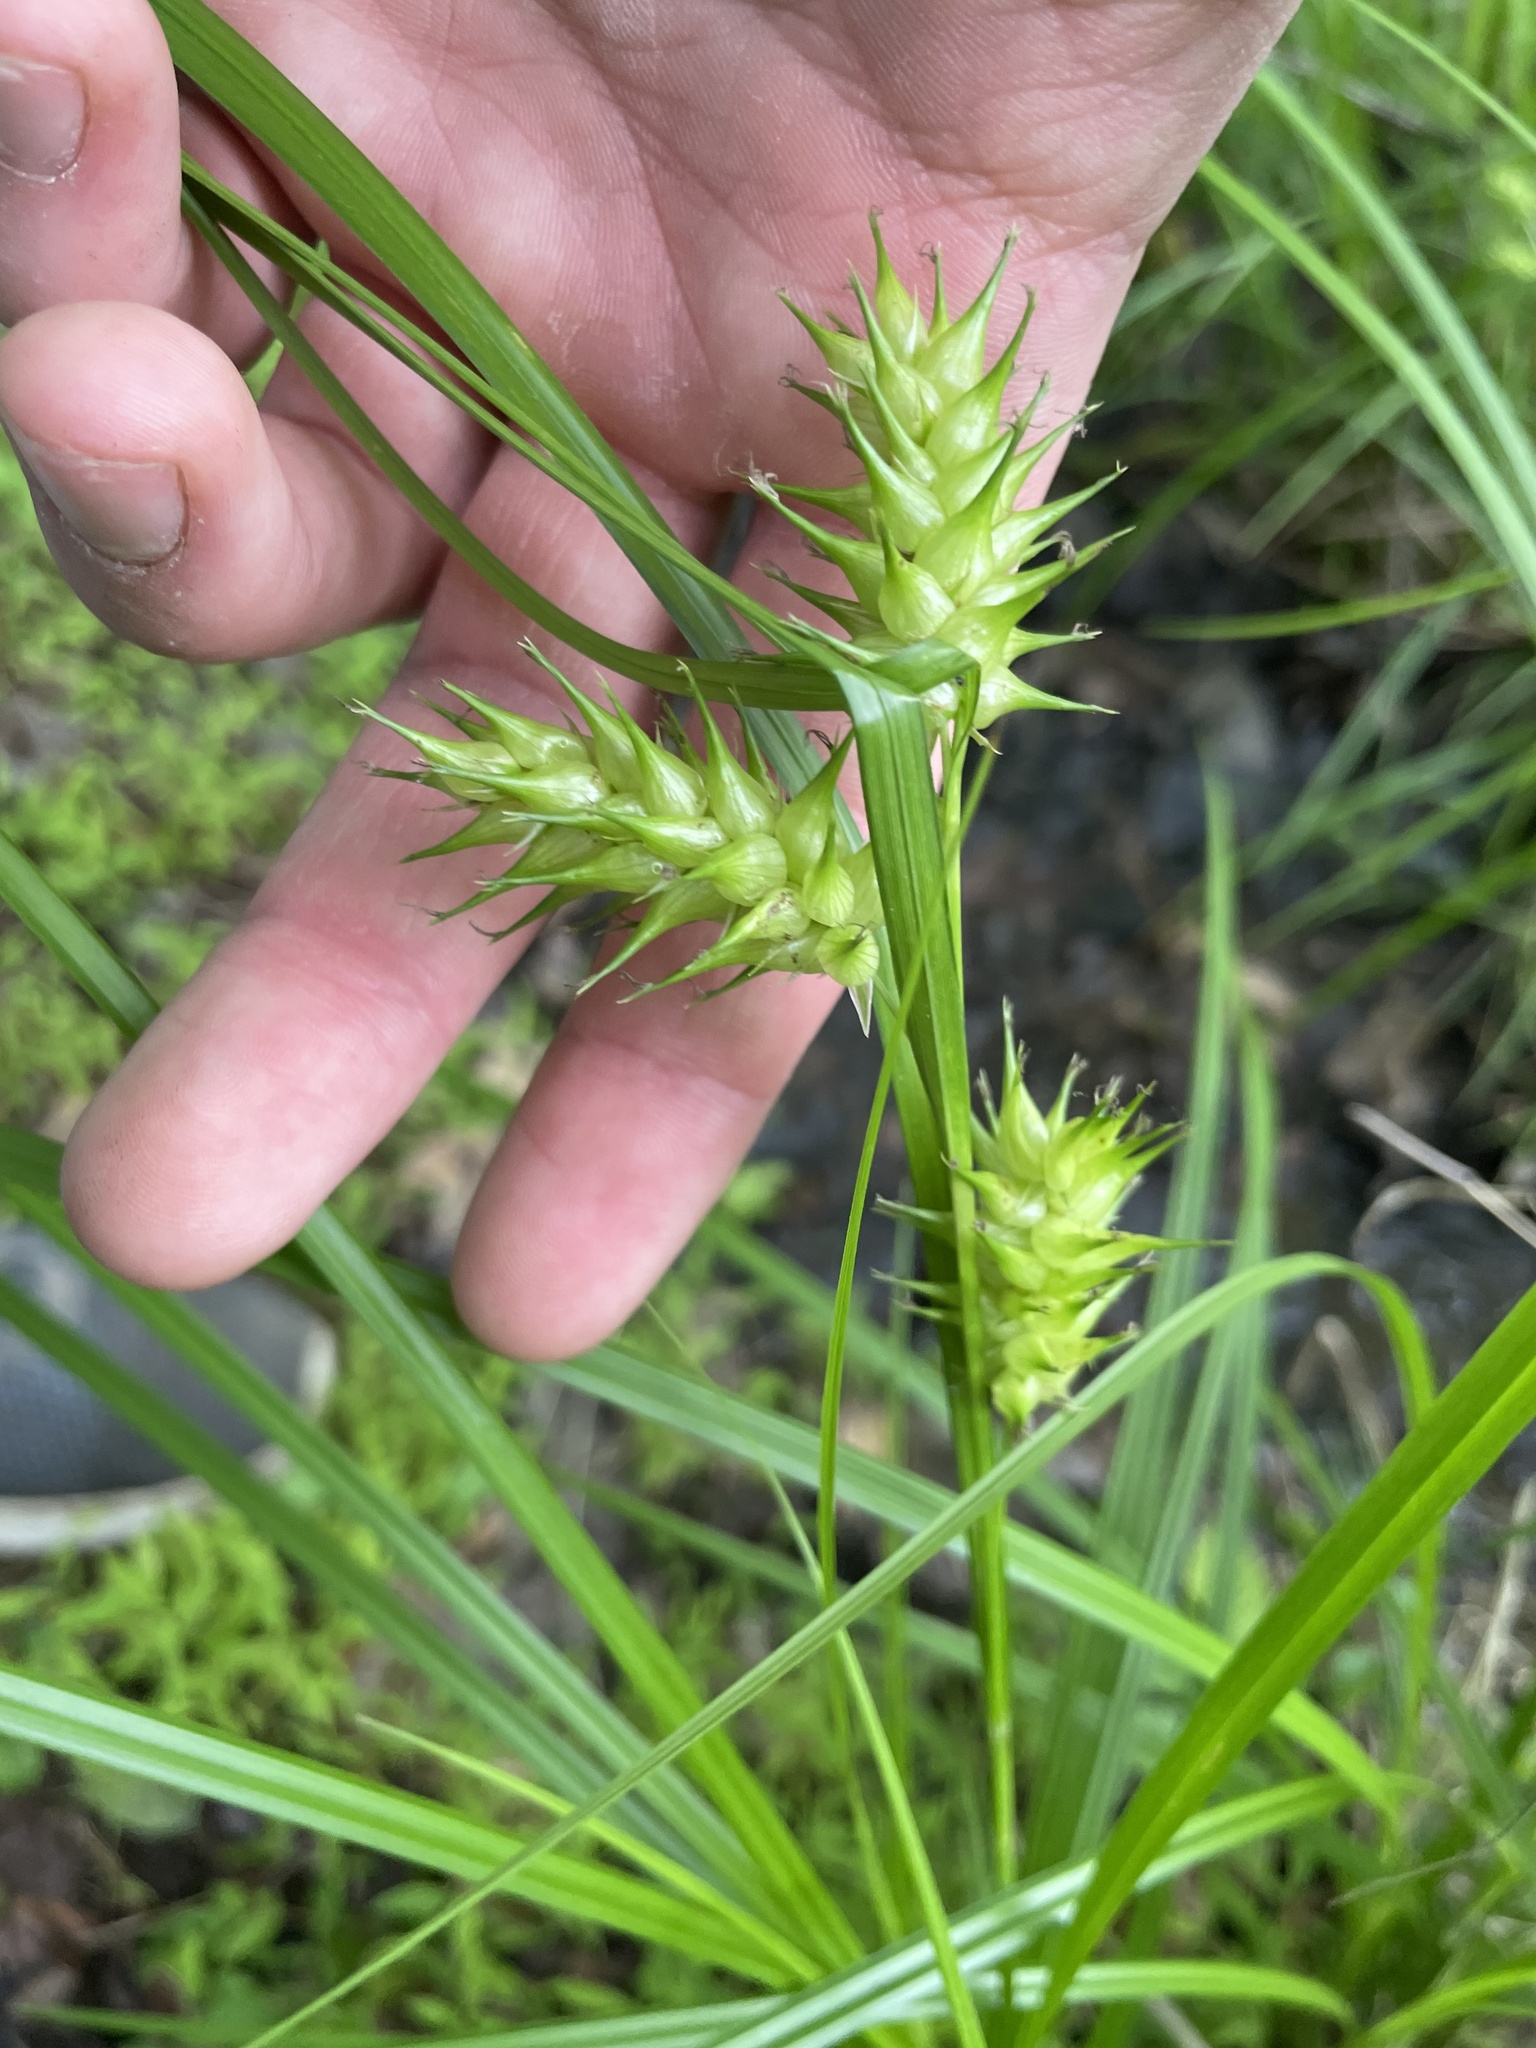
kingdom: Plantae
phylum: Tracheophyta
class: Liliopsida
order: Poales
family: Cyperaceae
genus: Carex
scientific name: Carex louisianica
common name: Louisiana sedge
